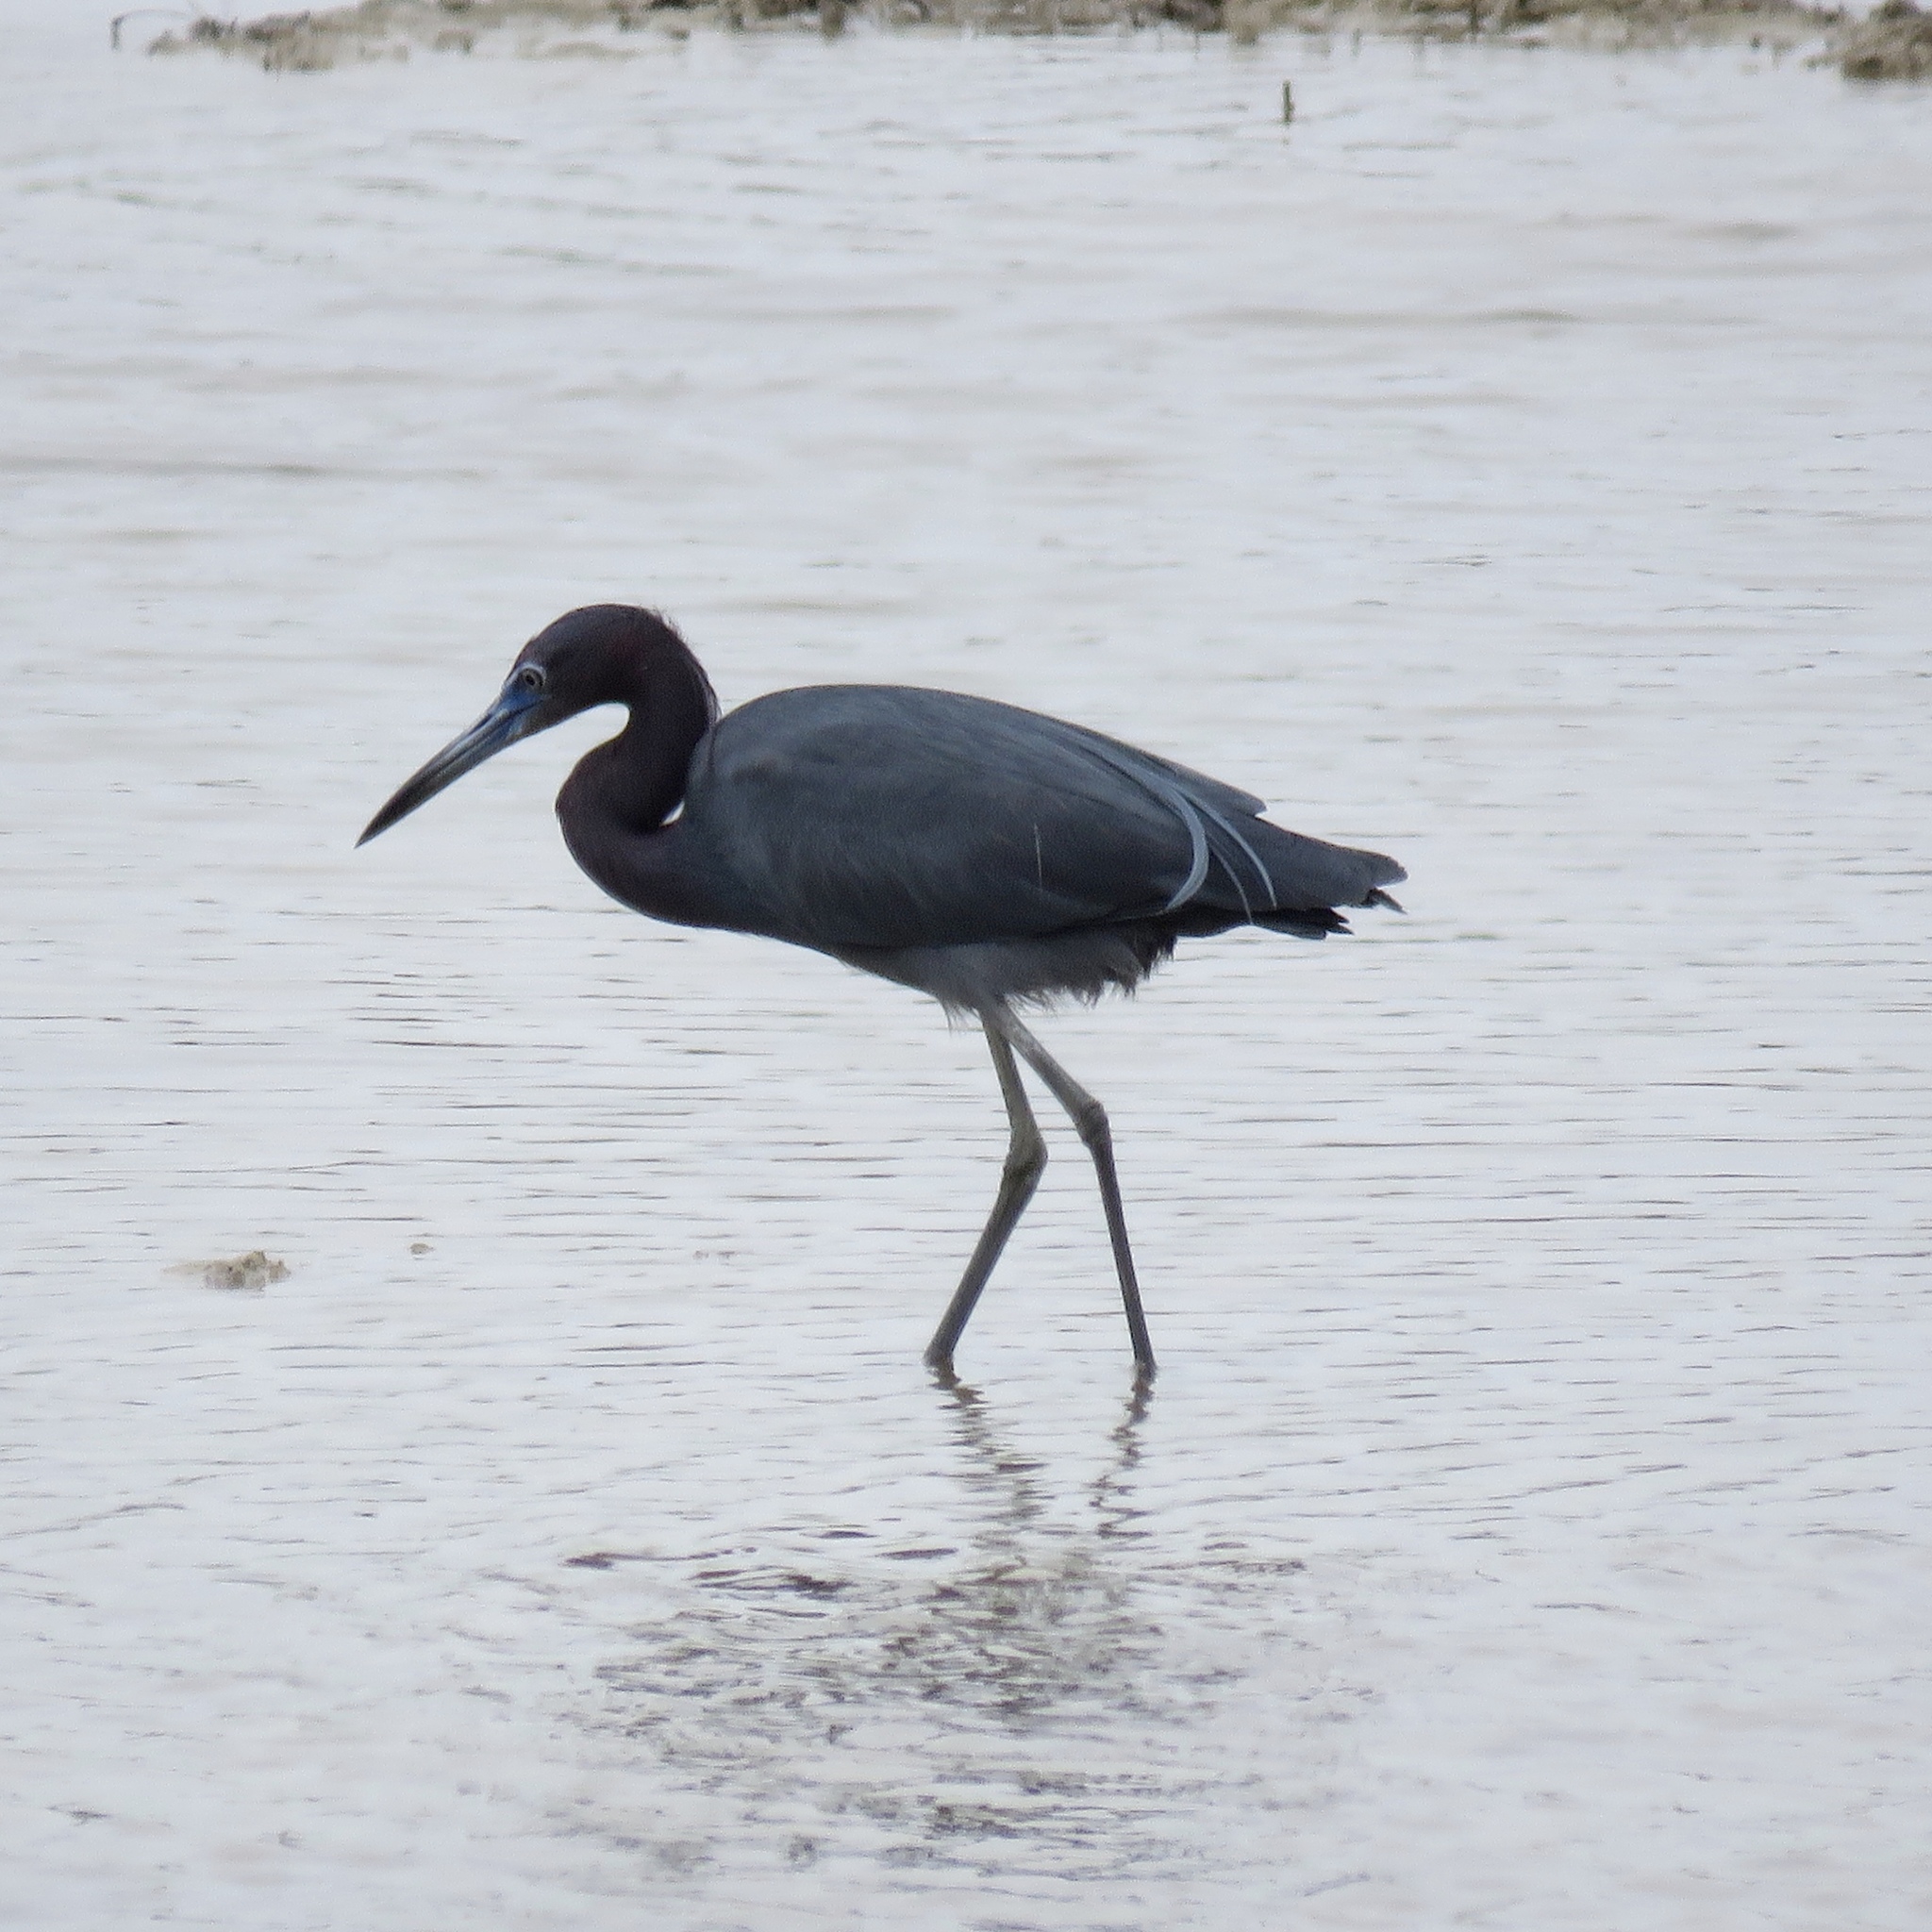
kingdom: Animalia
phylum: Chordata
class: Aves
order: Pelecaniformes
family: Ardeidae
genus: Egretta
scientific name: Egretta caerulea
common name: Little blue heron
